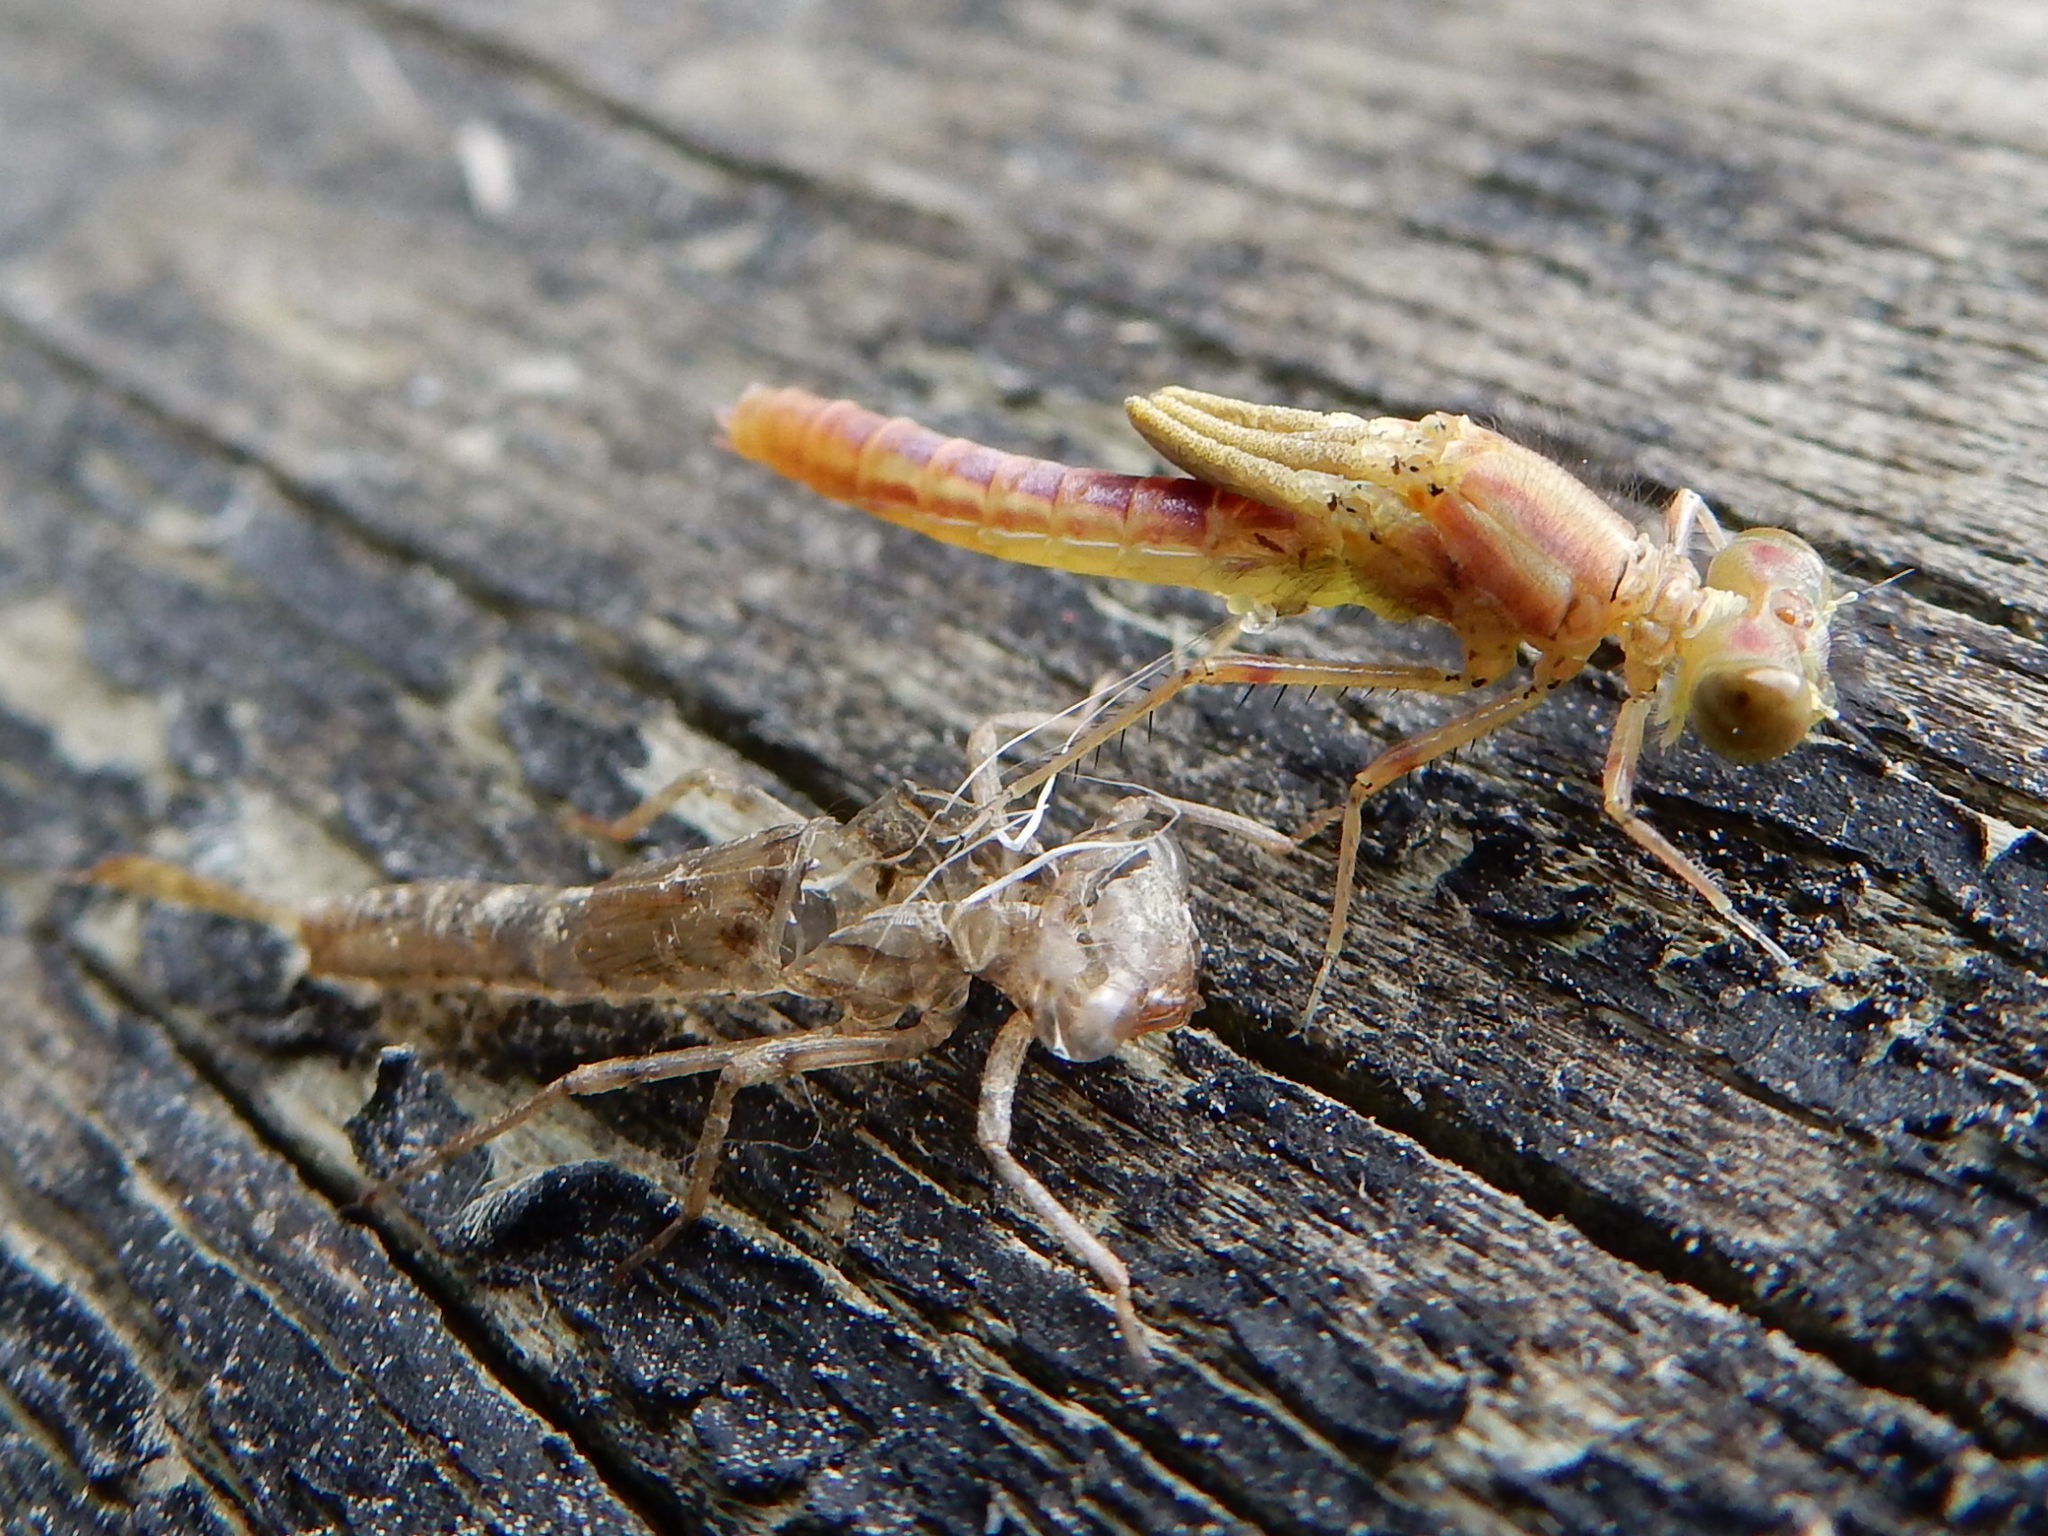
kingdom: Animalia
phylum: Arthropoda
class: Insecta
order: Odonata
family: Coenagrionidae
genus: Xanthocnemis
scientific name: Xanthocnemis zealandica
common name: Common redcoat damselfly
